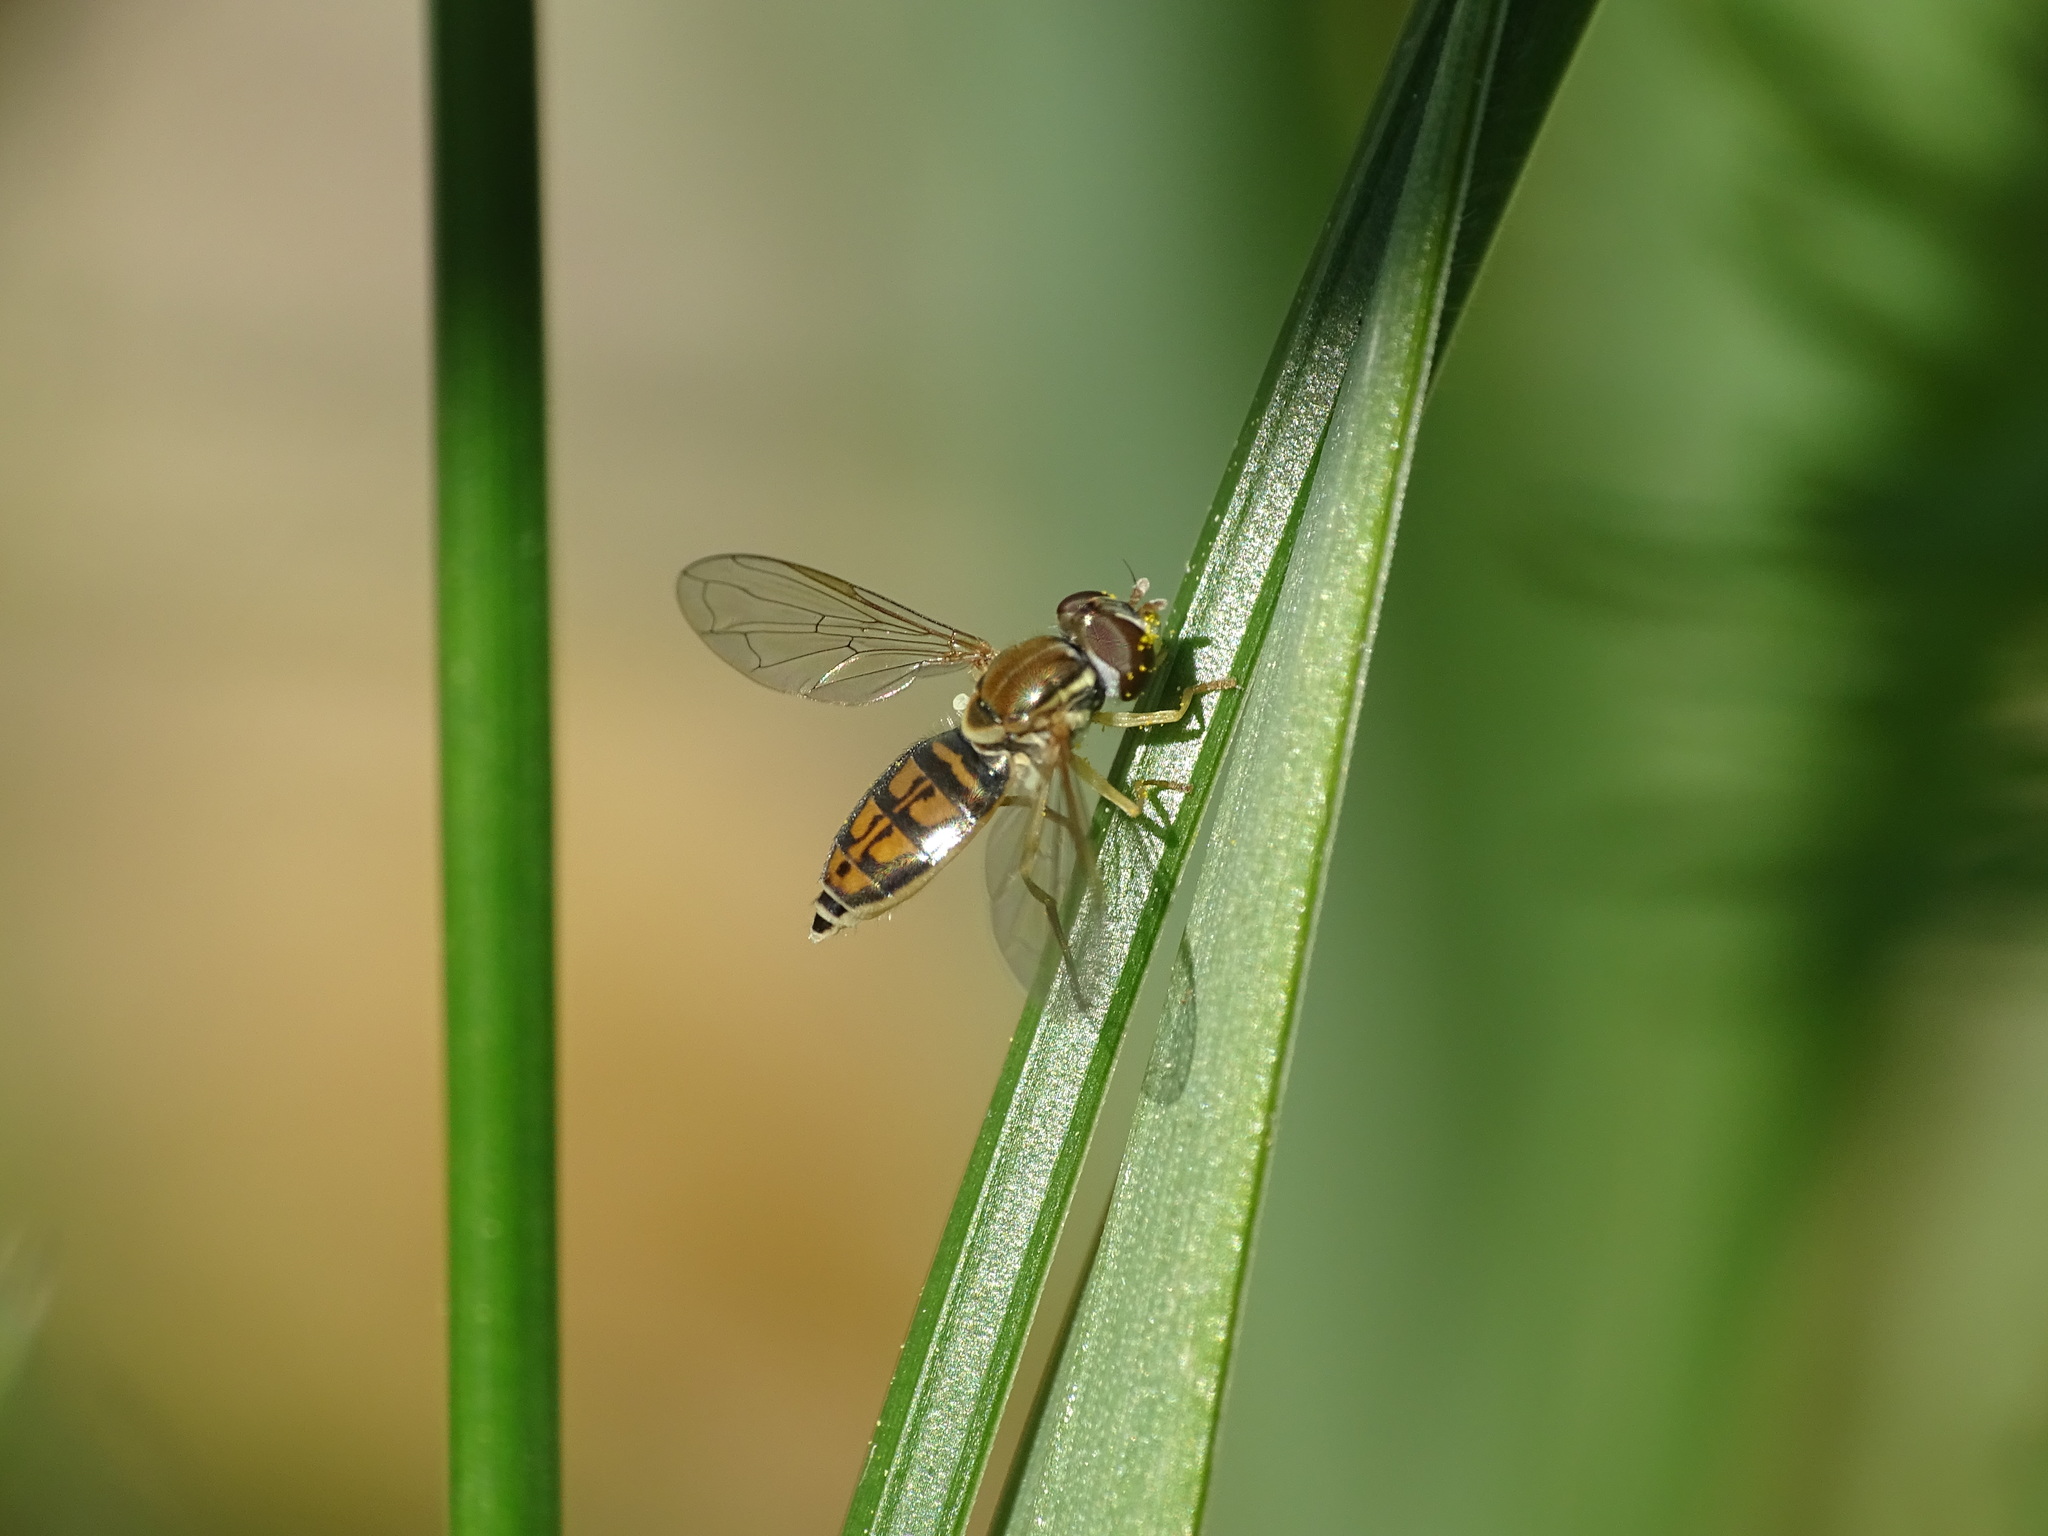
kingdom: Animalia
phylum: Arthropoda
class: Insecta
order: Diptera
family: Syrphidae
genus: Toxomerus
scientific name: Toxomerus marginatus
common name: Syrphid fly
